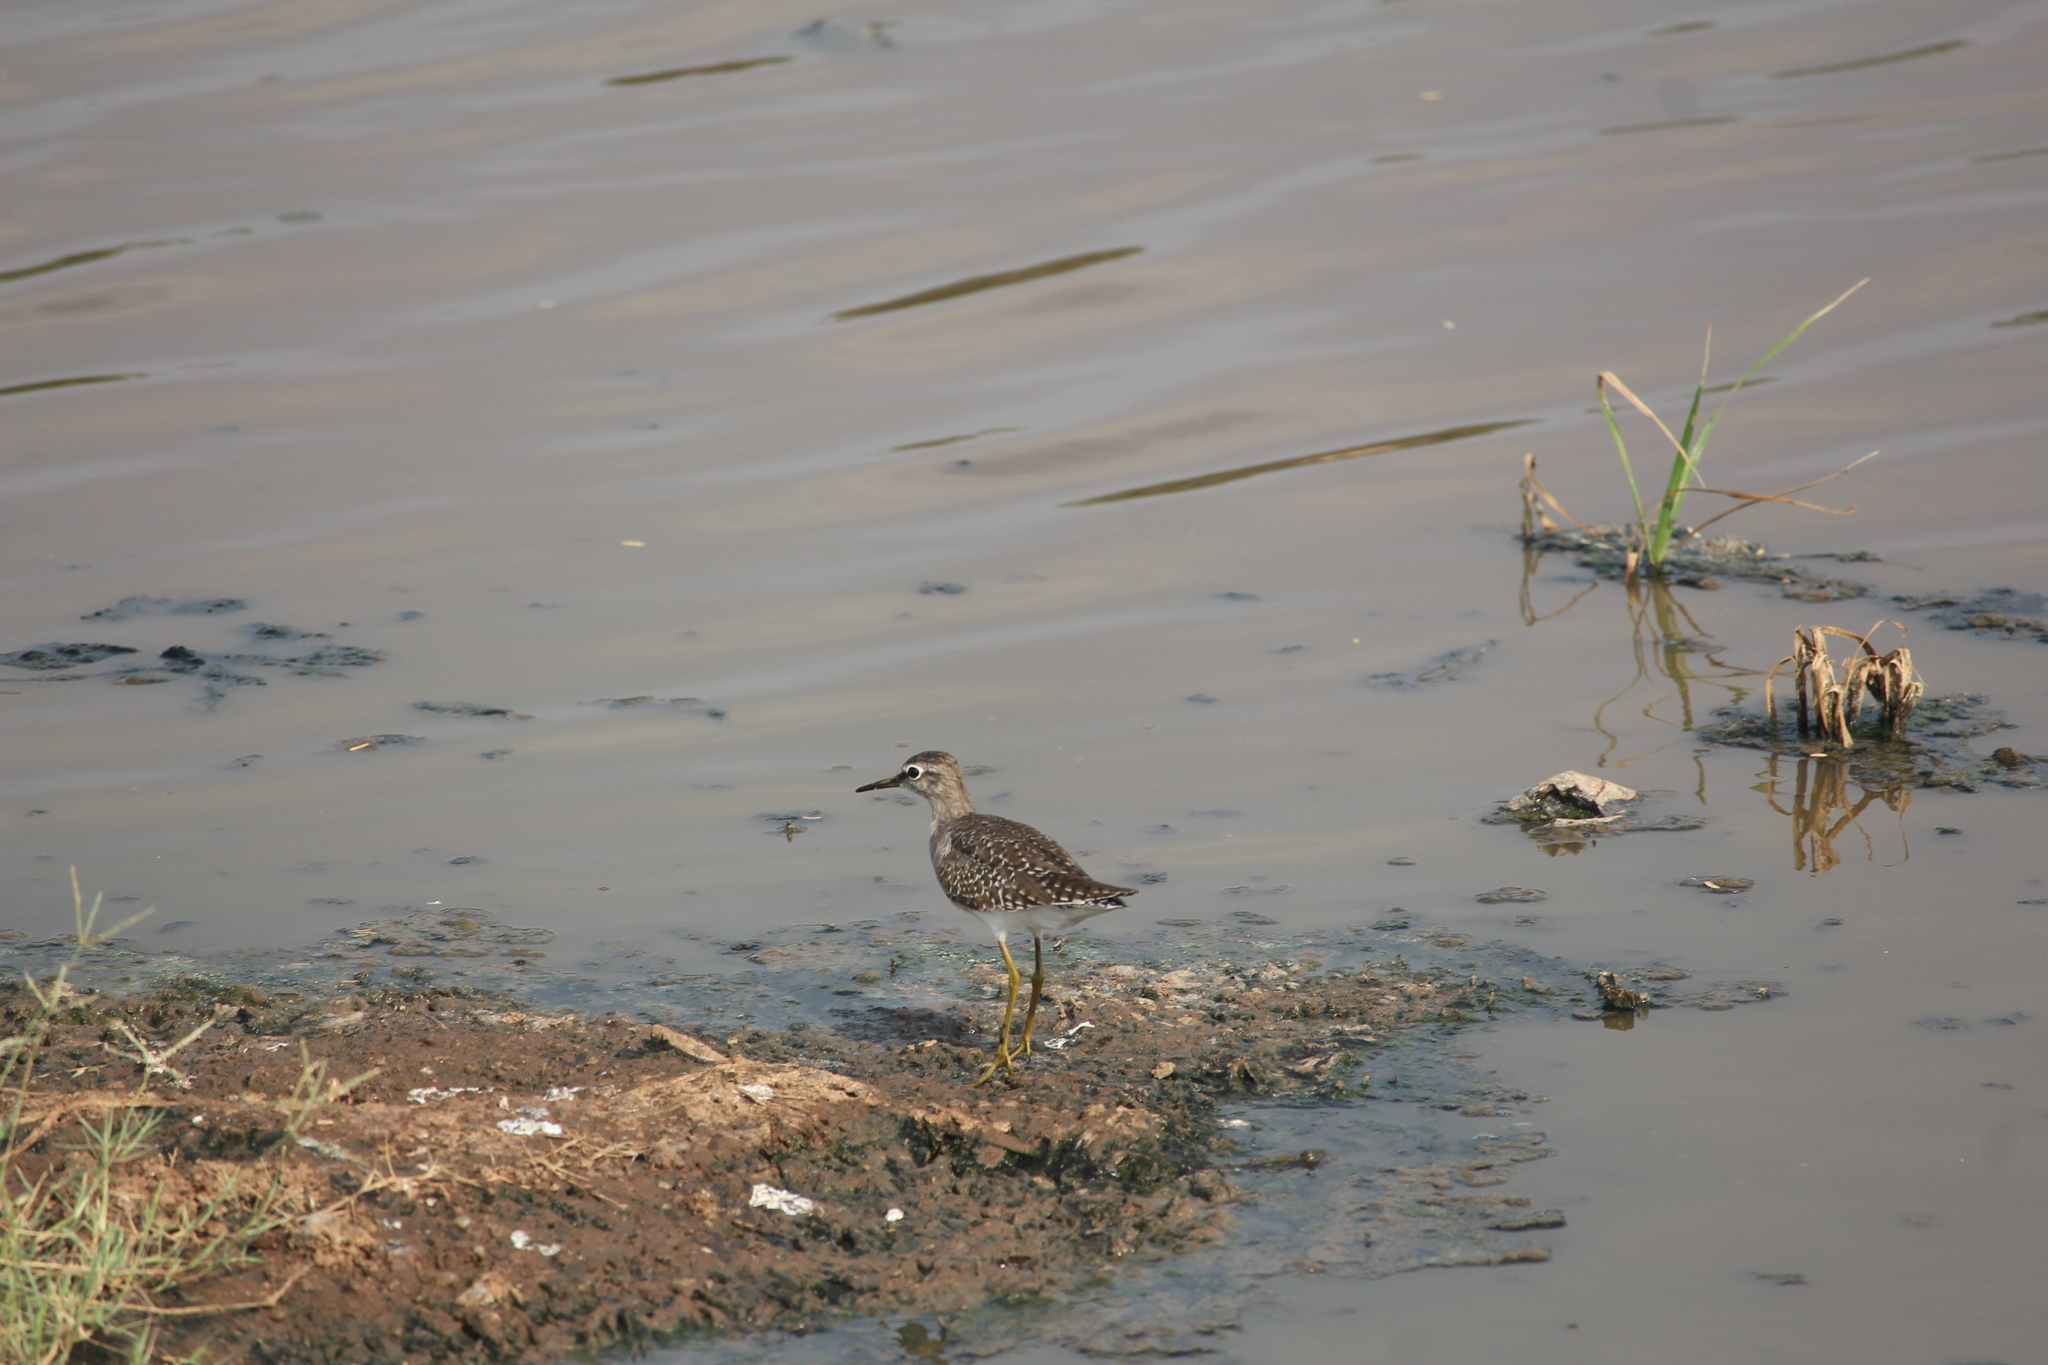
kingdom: Animalia
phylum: Chordata
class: Aves
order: Charadriiformes
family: Scolopacidae
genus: Tringa
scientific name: Tringa glareola
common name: Wood sandpiper
